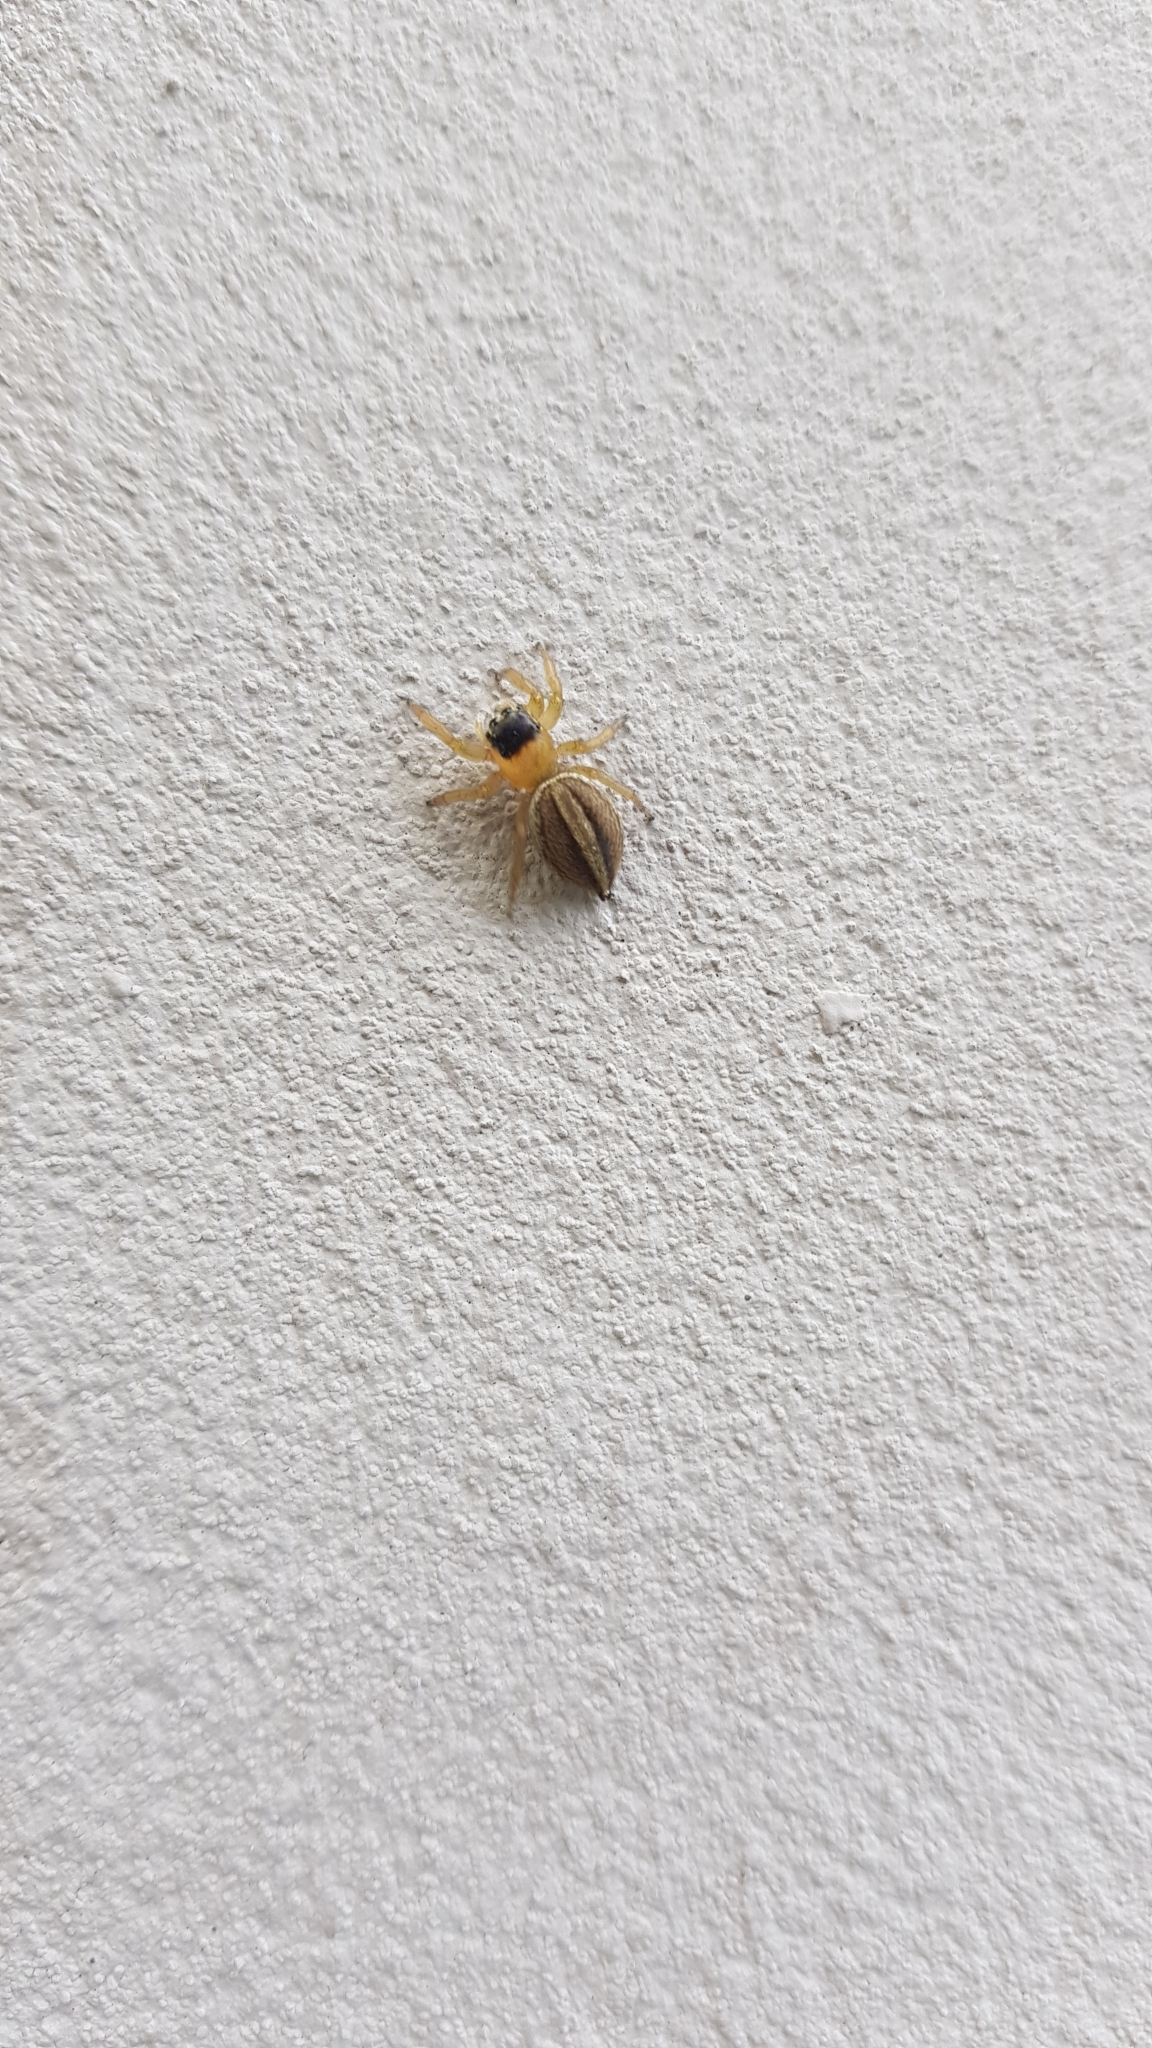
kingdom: Animalia
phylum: Arthropoda
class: Arachnida
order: Araneae
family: Salticidae
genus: Maratus
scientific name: Maratus scutulatus
